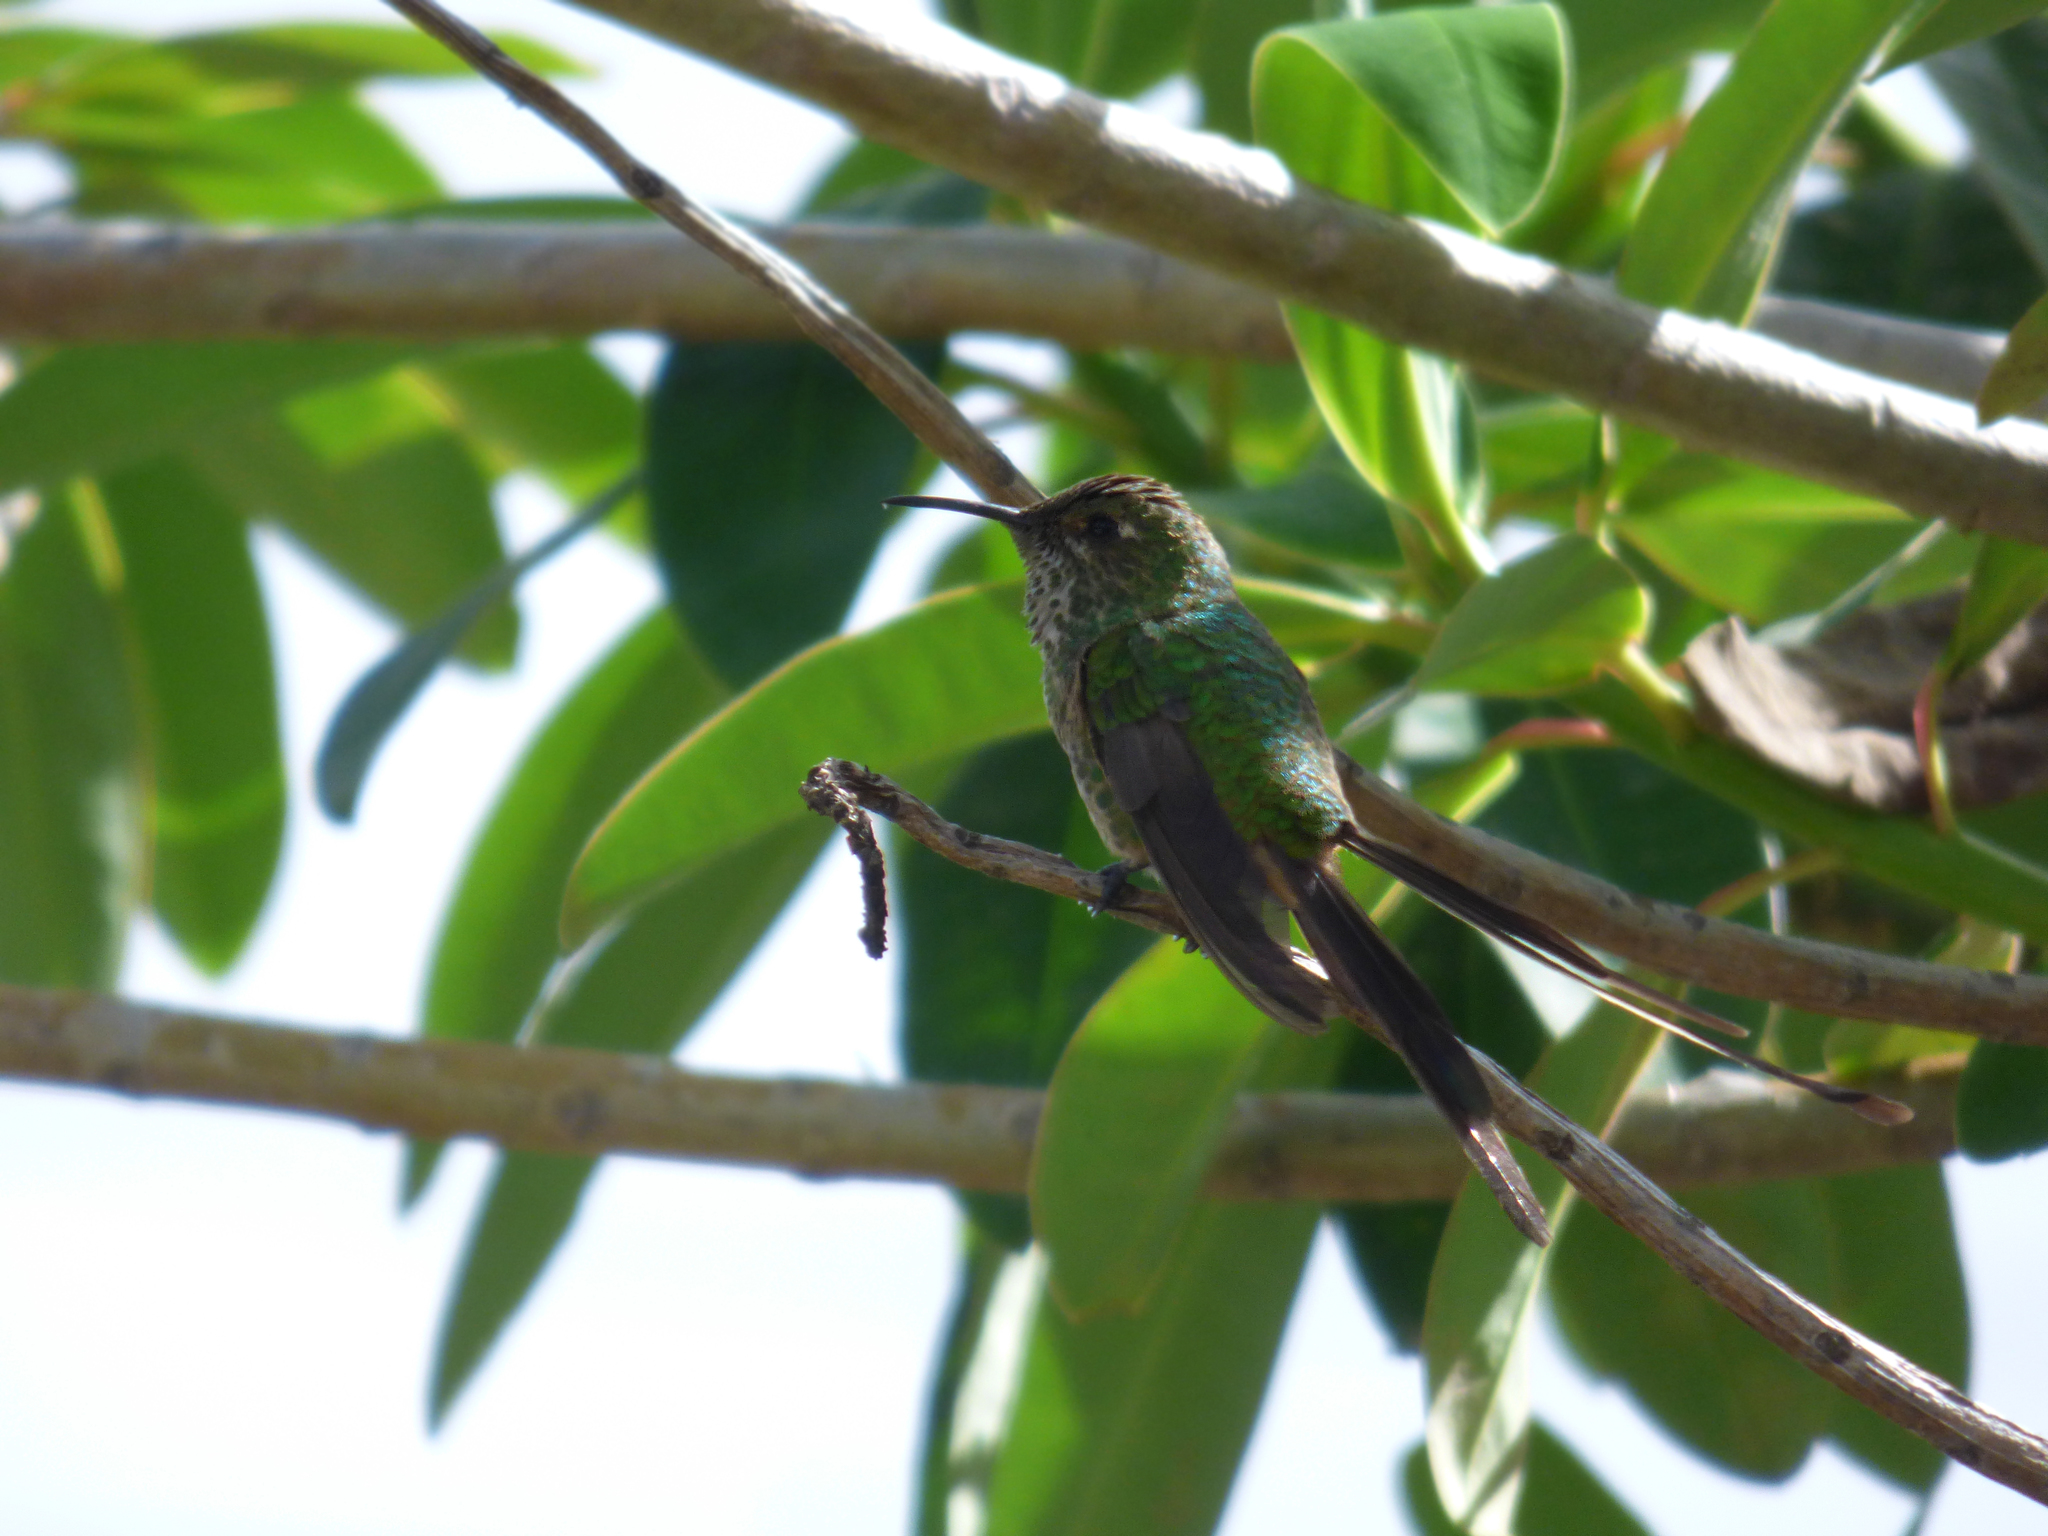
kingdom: Animalia
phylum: Chordata
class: Aves
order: Apodiformes
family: Trochilidae
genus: Lesbia
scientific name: Lesbia victoriae
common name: Black-tailed trainbearer
